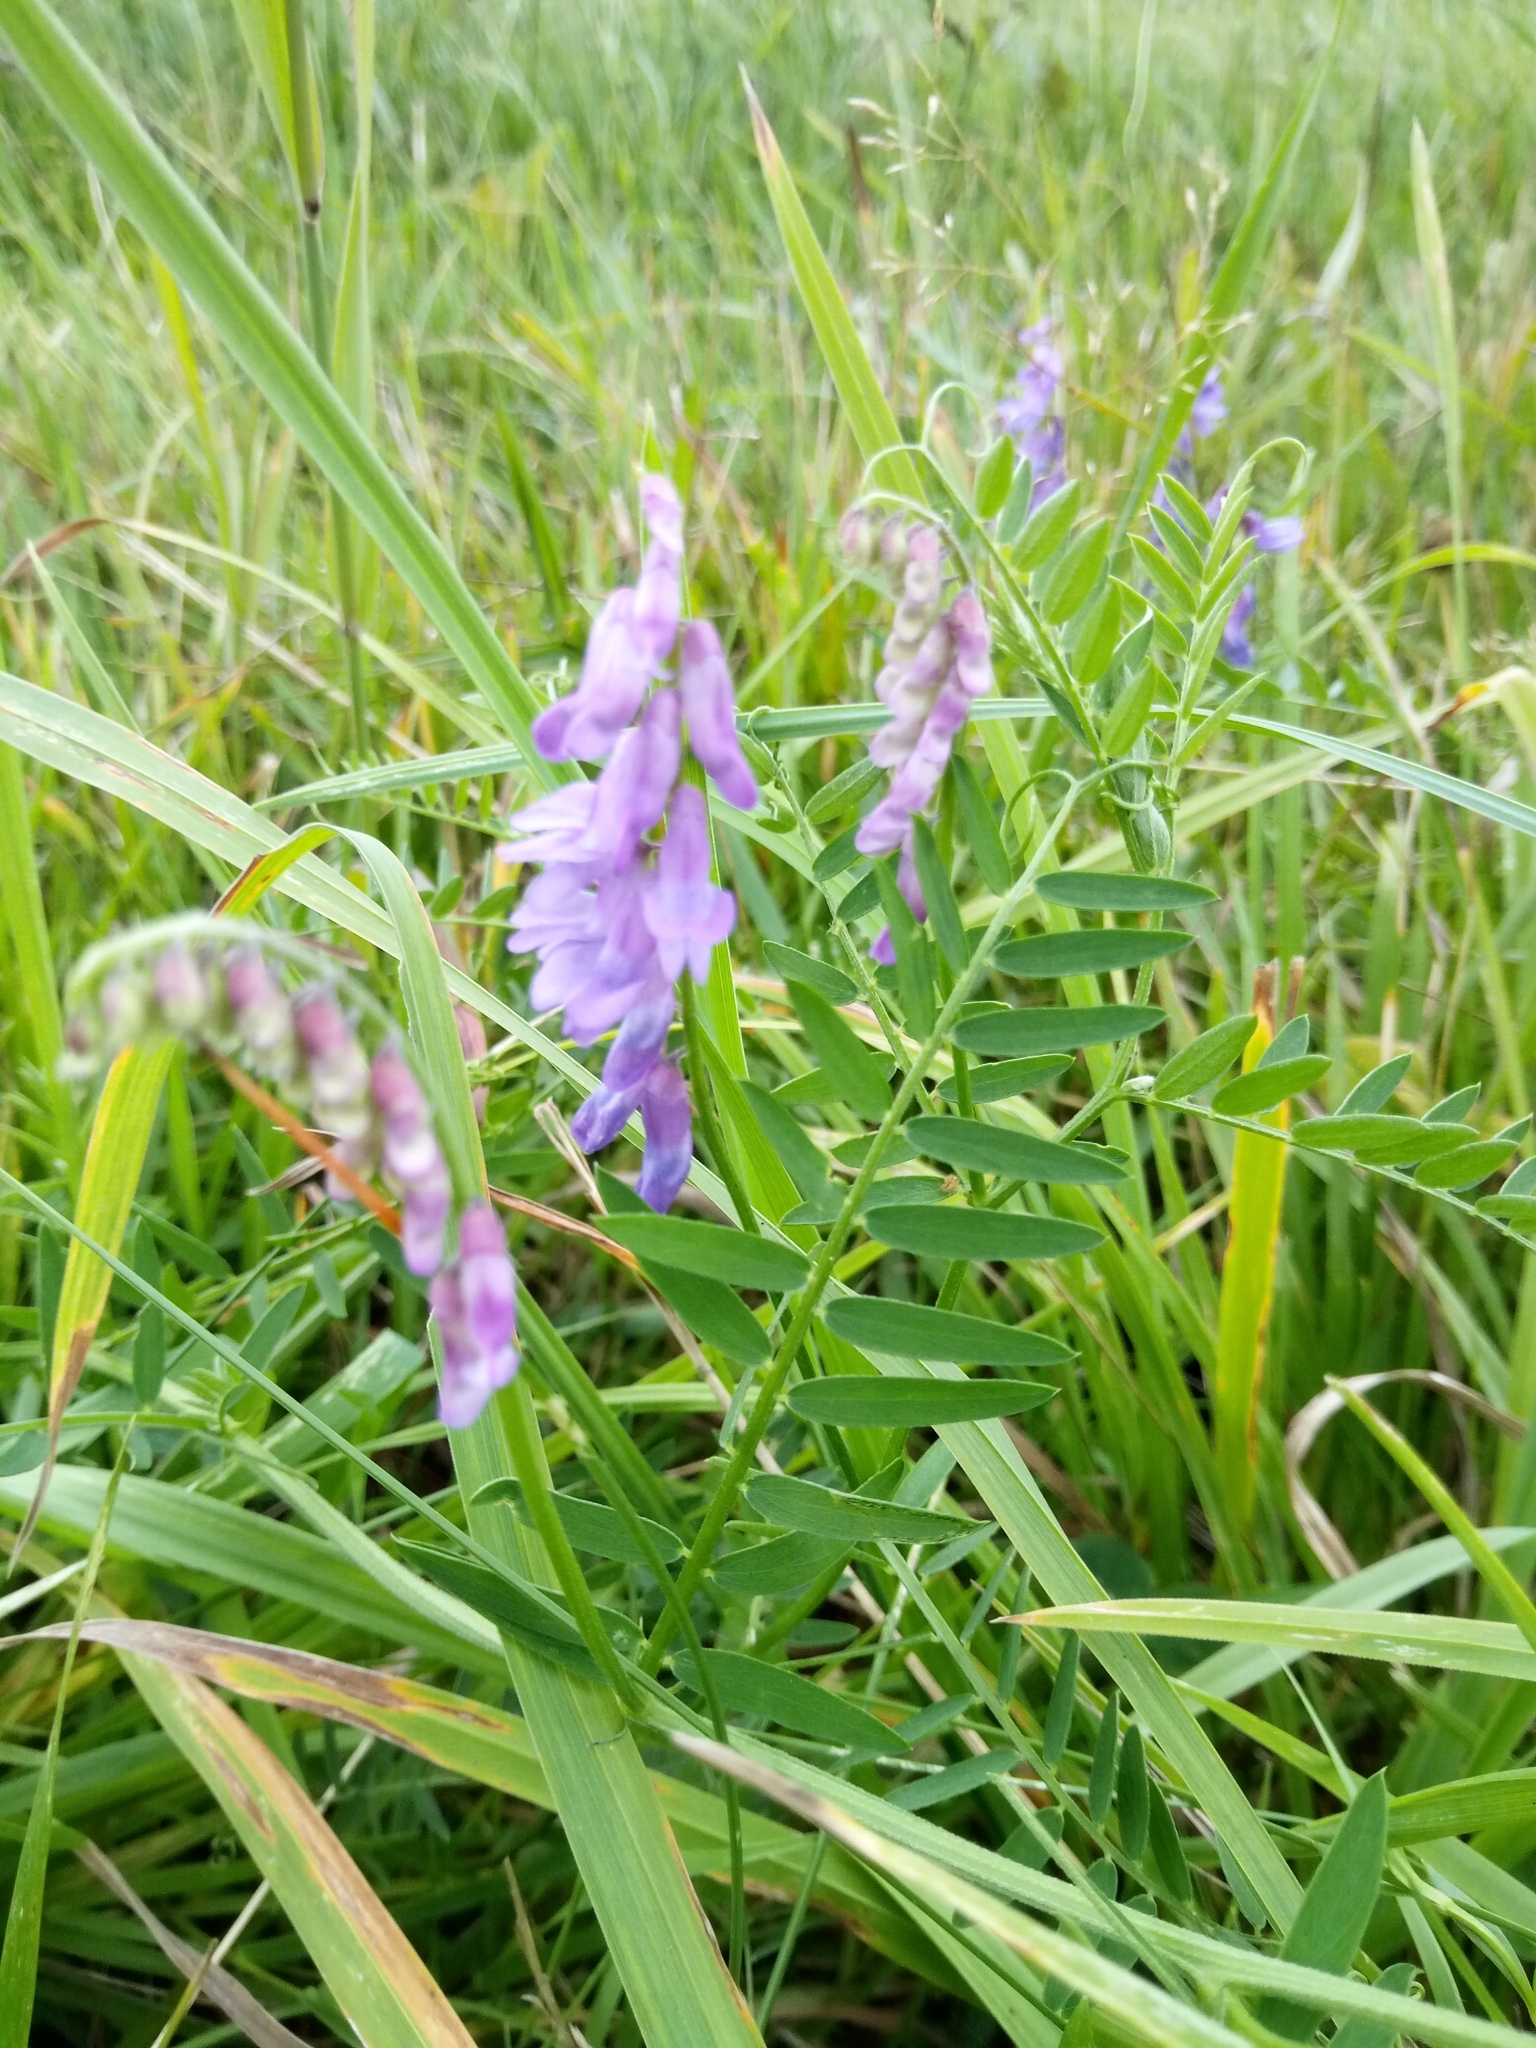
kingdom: Plantae
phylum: Tracheophyta
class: Magnoliopsida
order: Fabales
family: Fabaceae
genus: Vicia
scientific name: Vicia cracca
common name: Bird vetch
